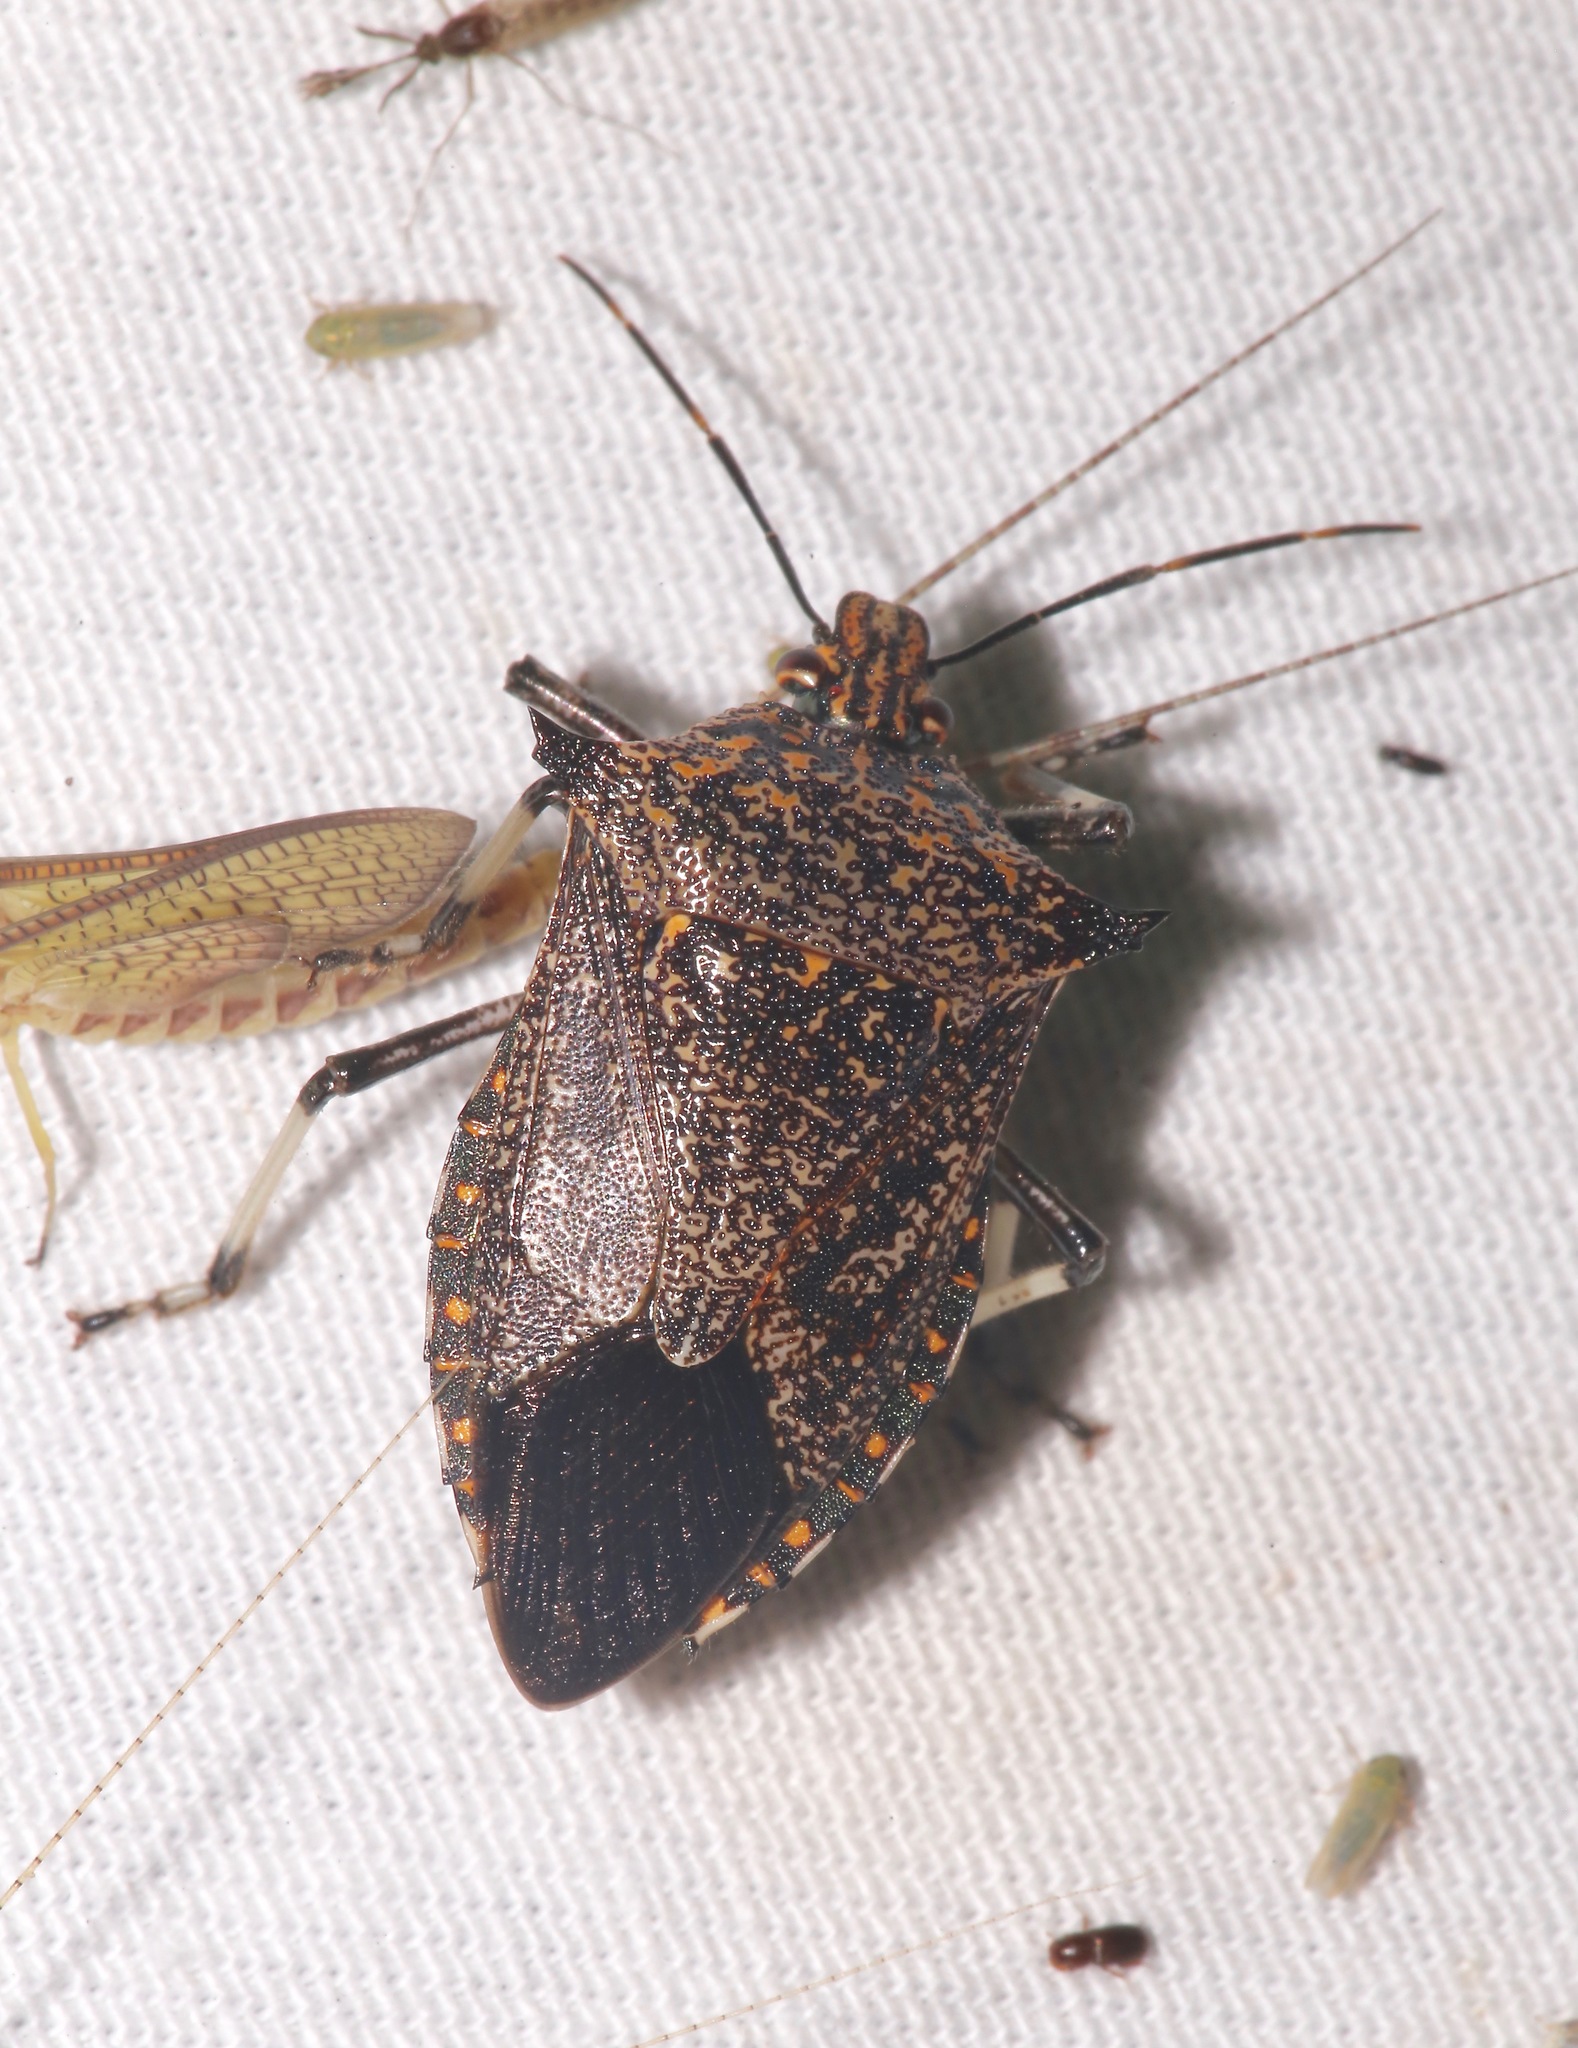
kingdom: Animalia
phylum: Arthropoda
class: Insecta
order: Hemiptera
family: Pentatomidae
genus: Alcaeorrhynchus
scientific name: Alcaeorrhynchus grandis
